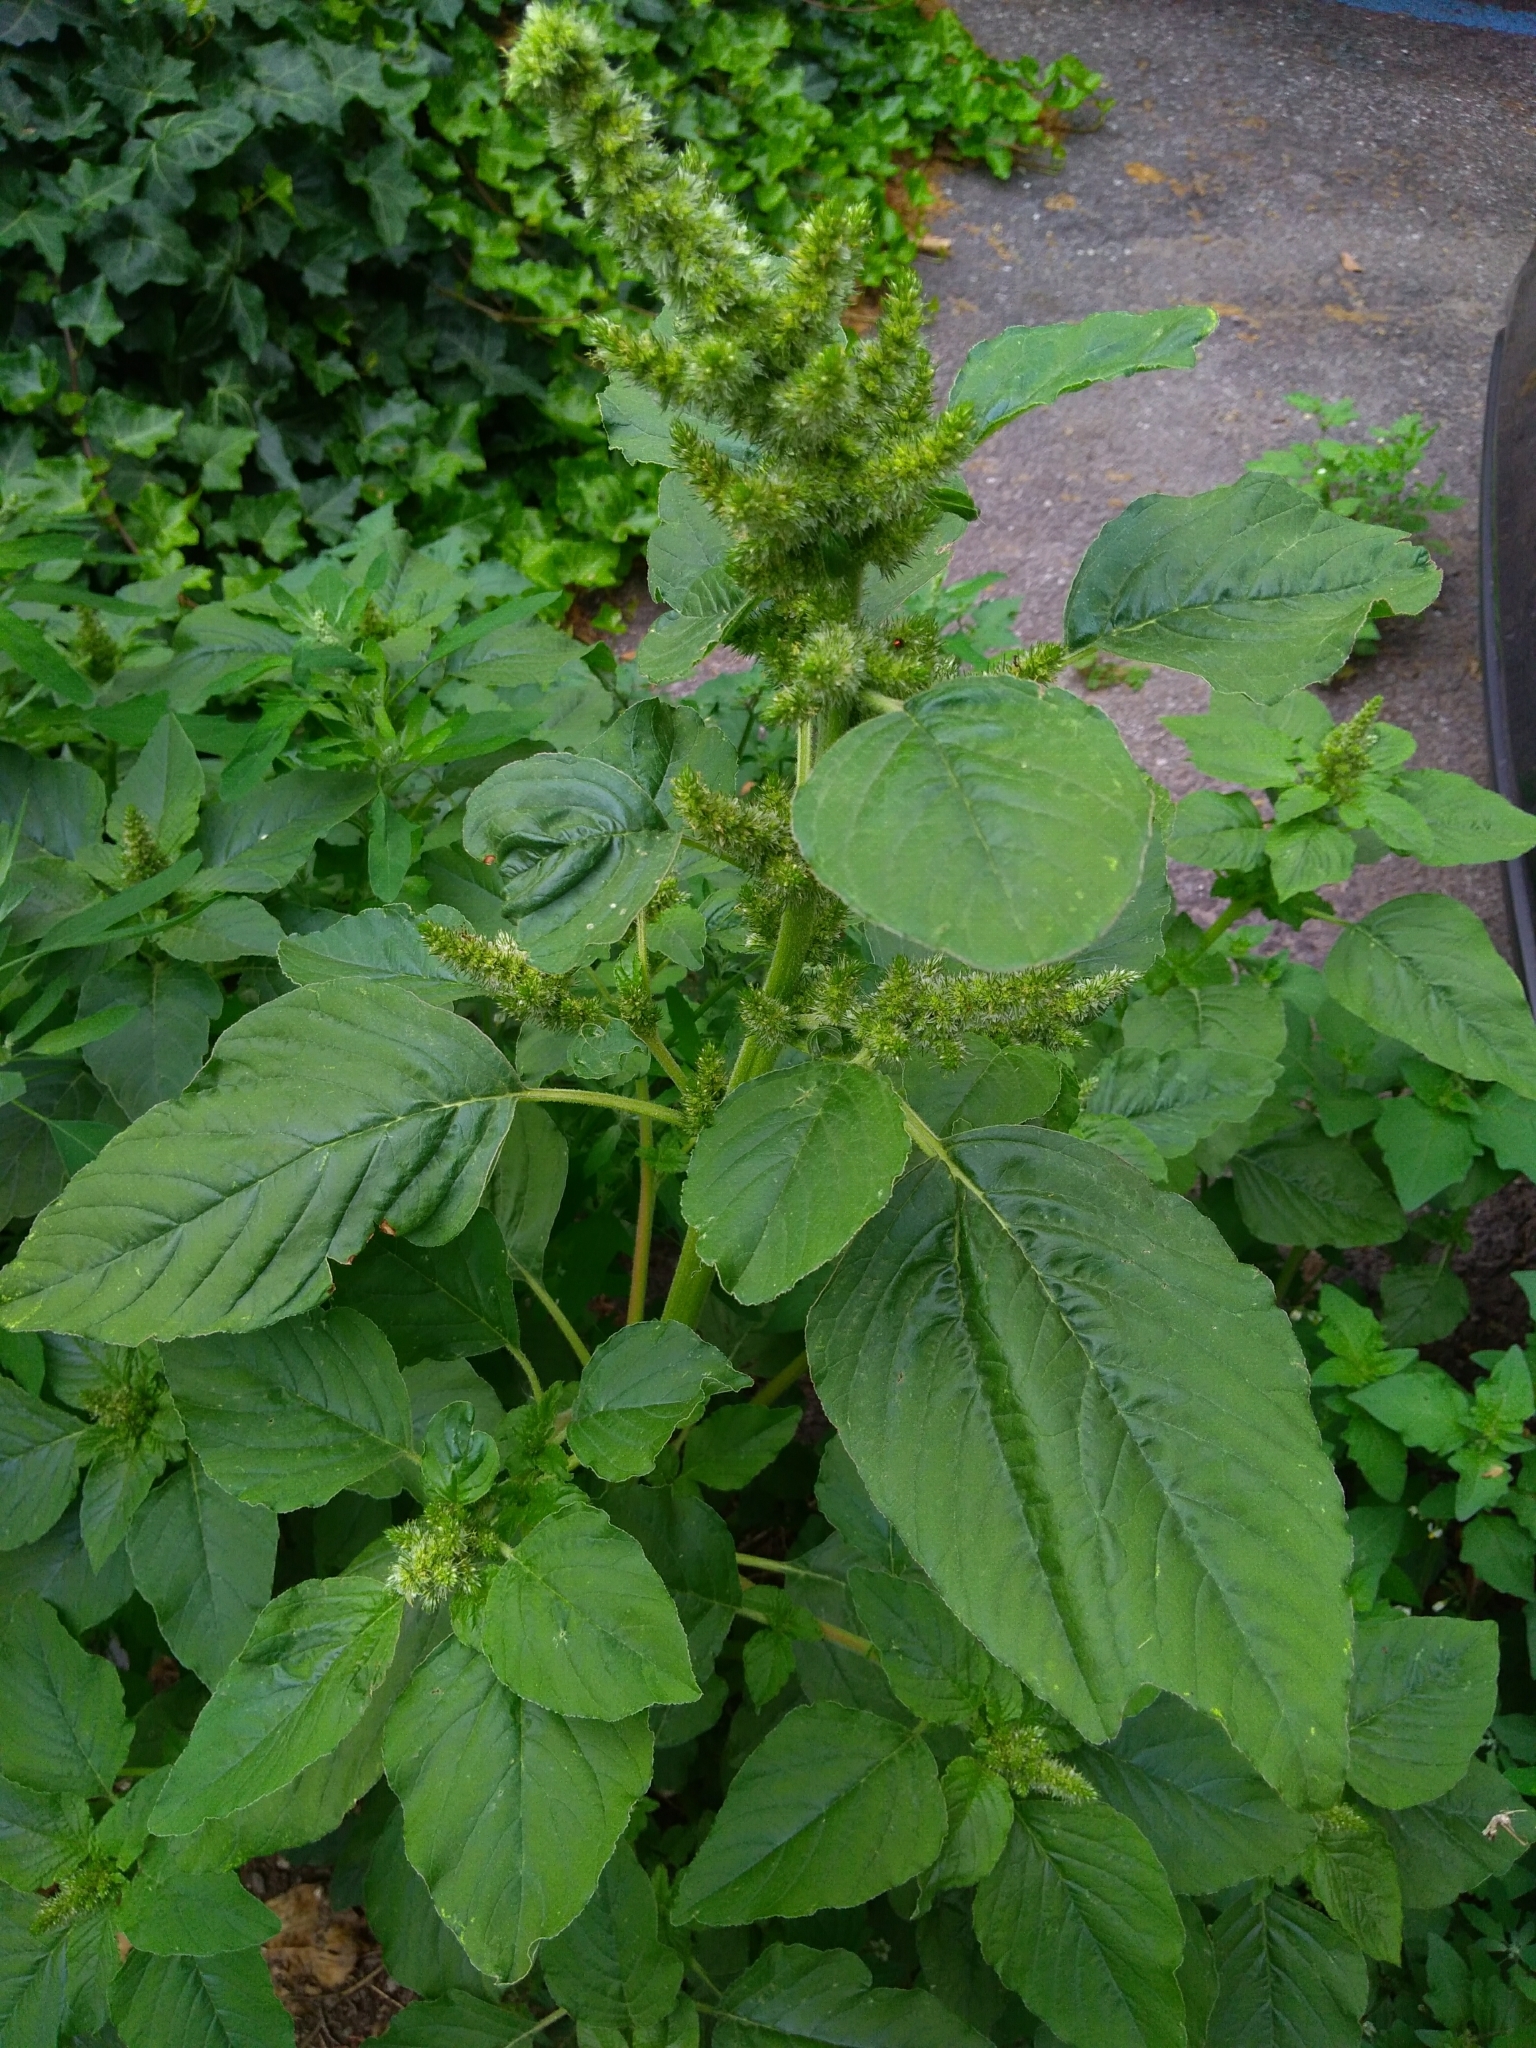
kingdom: Plantae
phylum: Tracheophyta
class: Magnoliopsida
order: Caryophyllales
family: Amaranthaceae
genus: Amaranthus
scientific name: Amaranthus retroflexus
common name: Redroot amaranth
